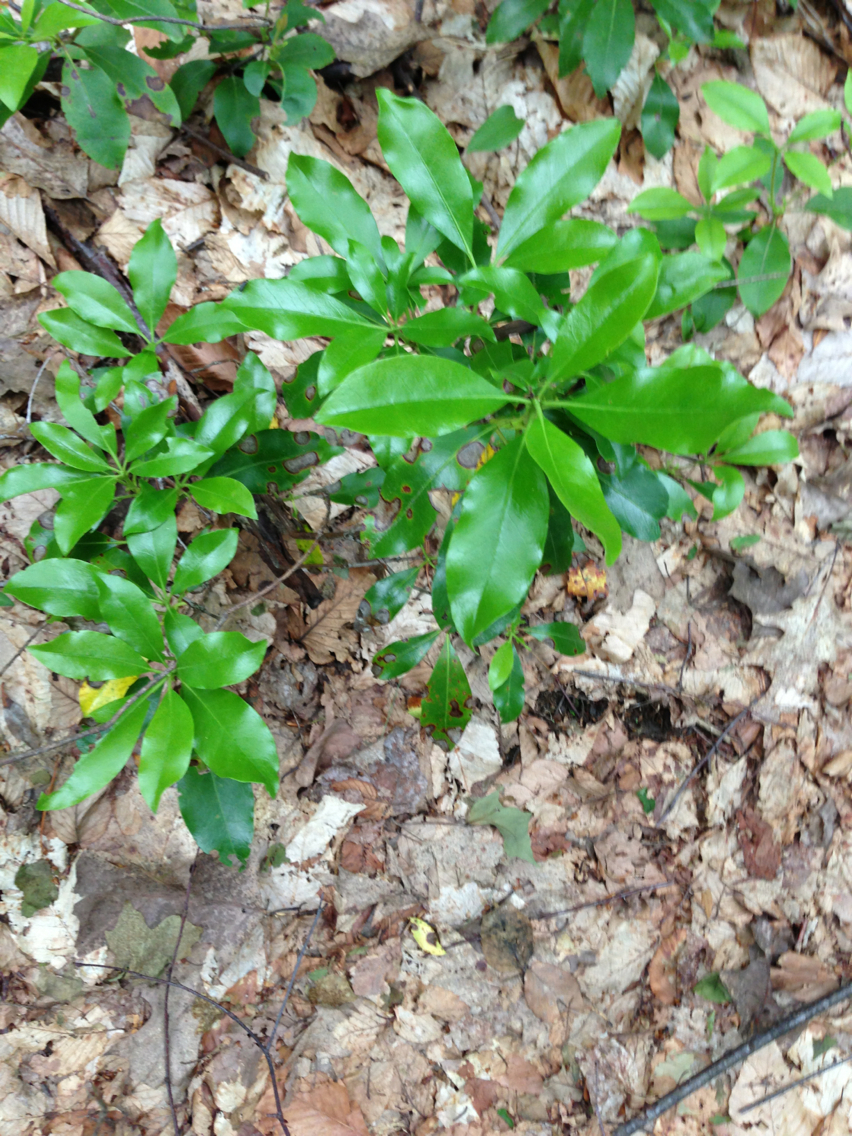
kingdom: Plantae
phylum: Tracheophyta
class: Magnoliopsida
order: Ericales
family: Ericaceae
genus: Kalmia
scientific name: Kalmia latifolia
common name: Mountain-laurel
